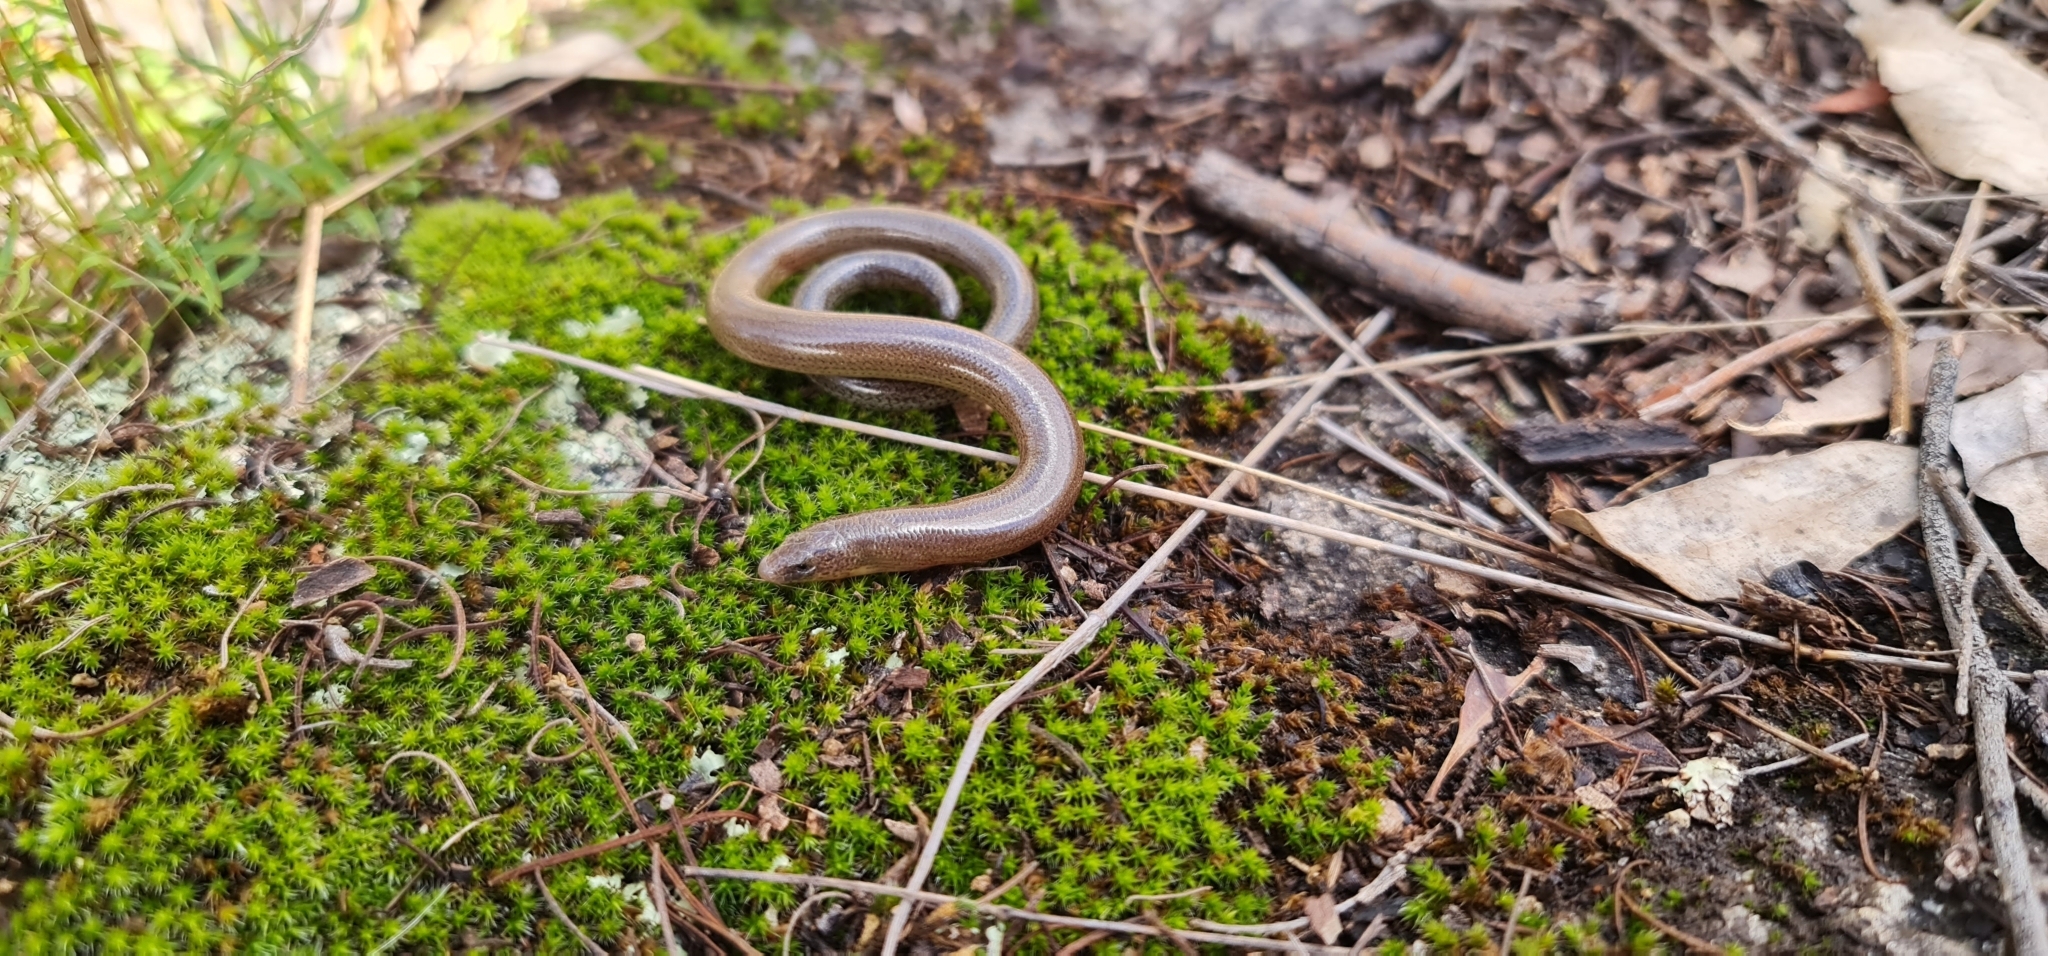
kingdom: Animalia
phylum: Chordata
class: Squamata
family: Scincidae
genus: Anomalopus
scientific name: Anomalopus leuckartii
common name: Two-clawed worm-skink
